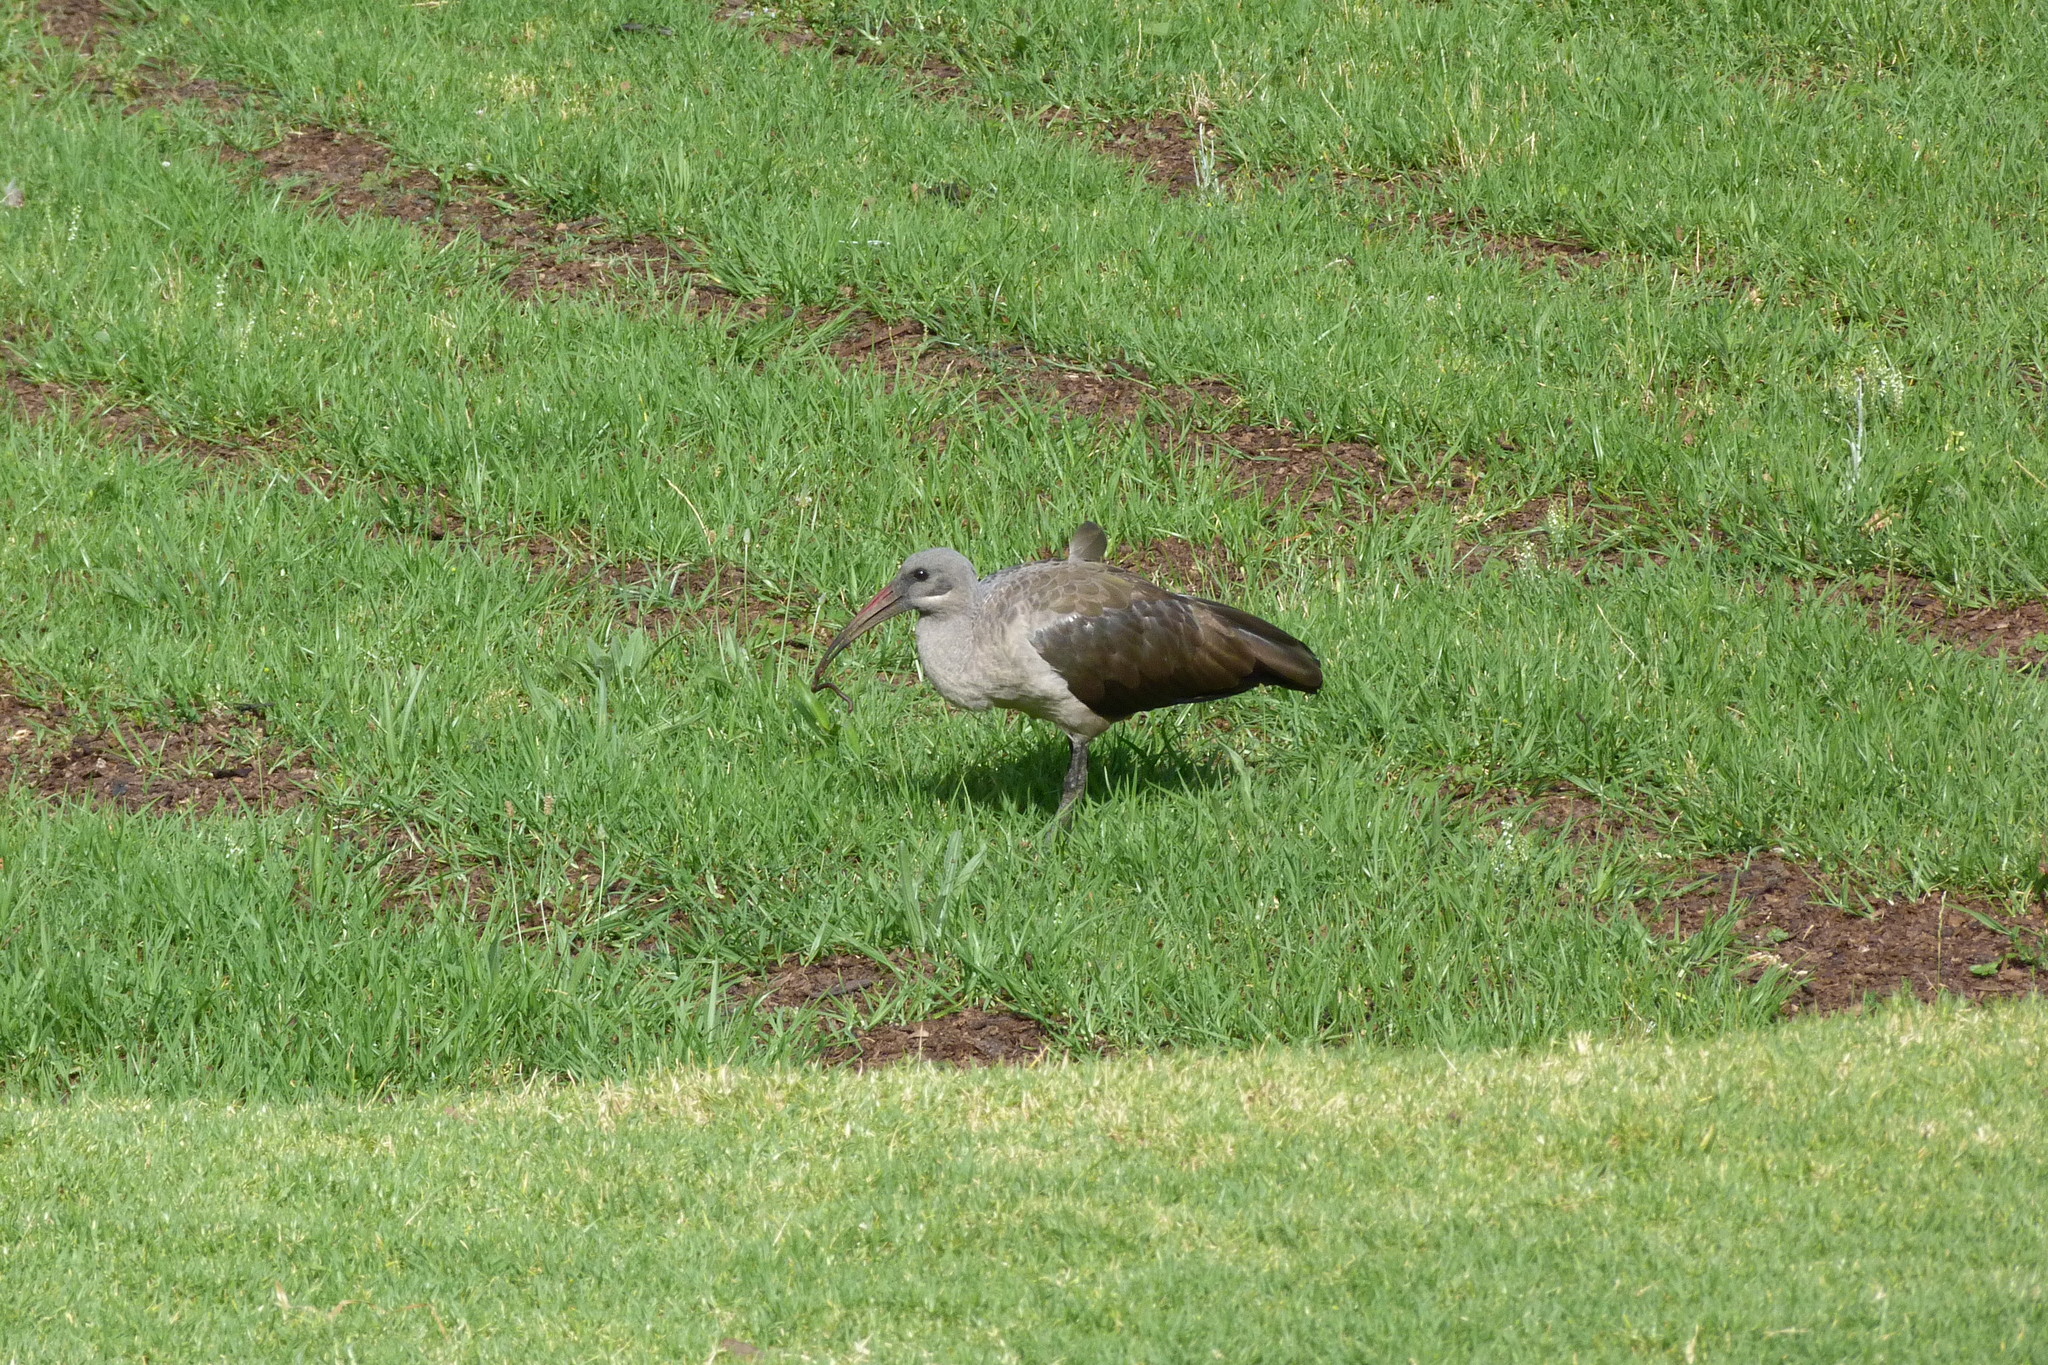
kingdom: Animalia
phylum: Chordata
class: Aves
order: Pelecaniformes
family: Threskiornithidae
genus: Bostrychia
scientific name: Bostrychia hagedash
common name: Hadada ibis
